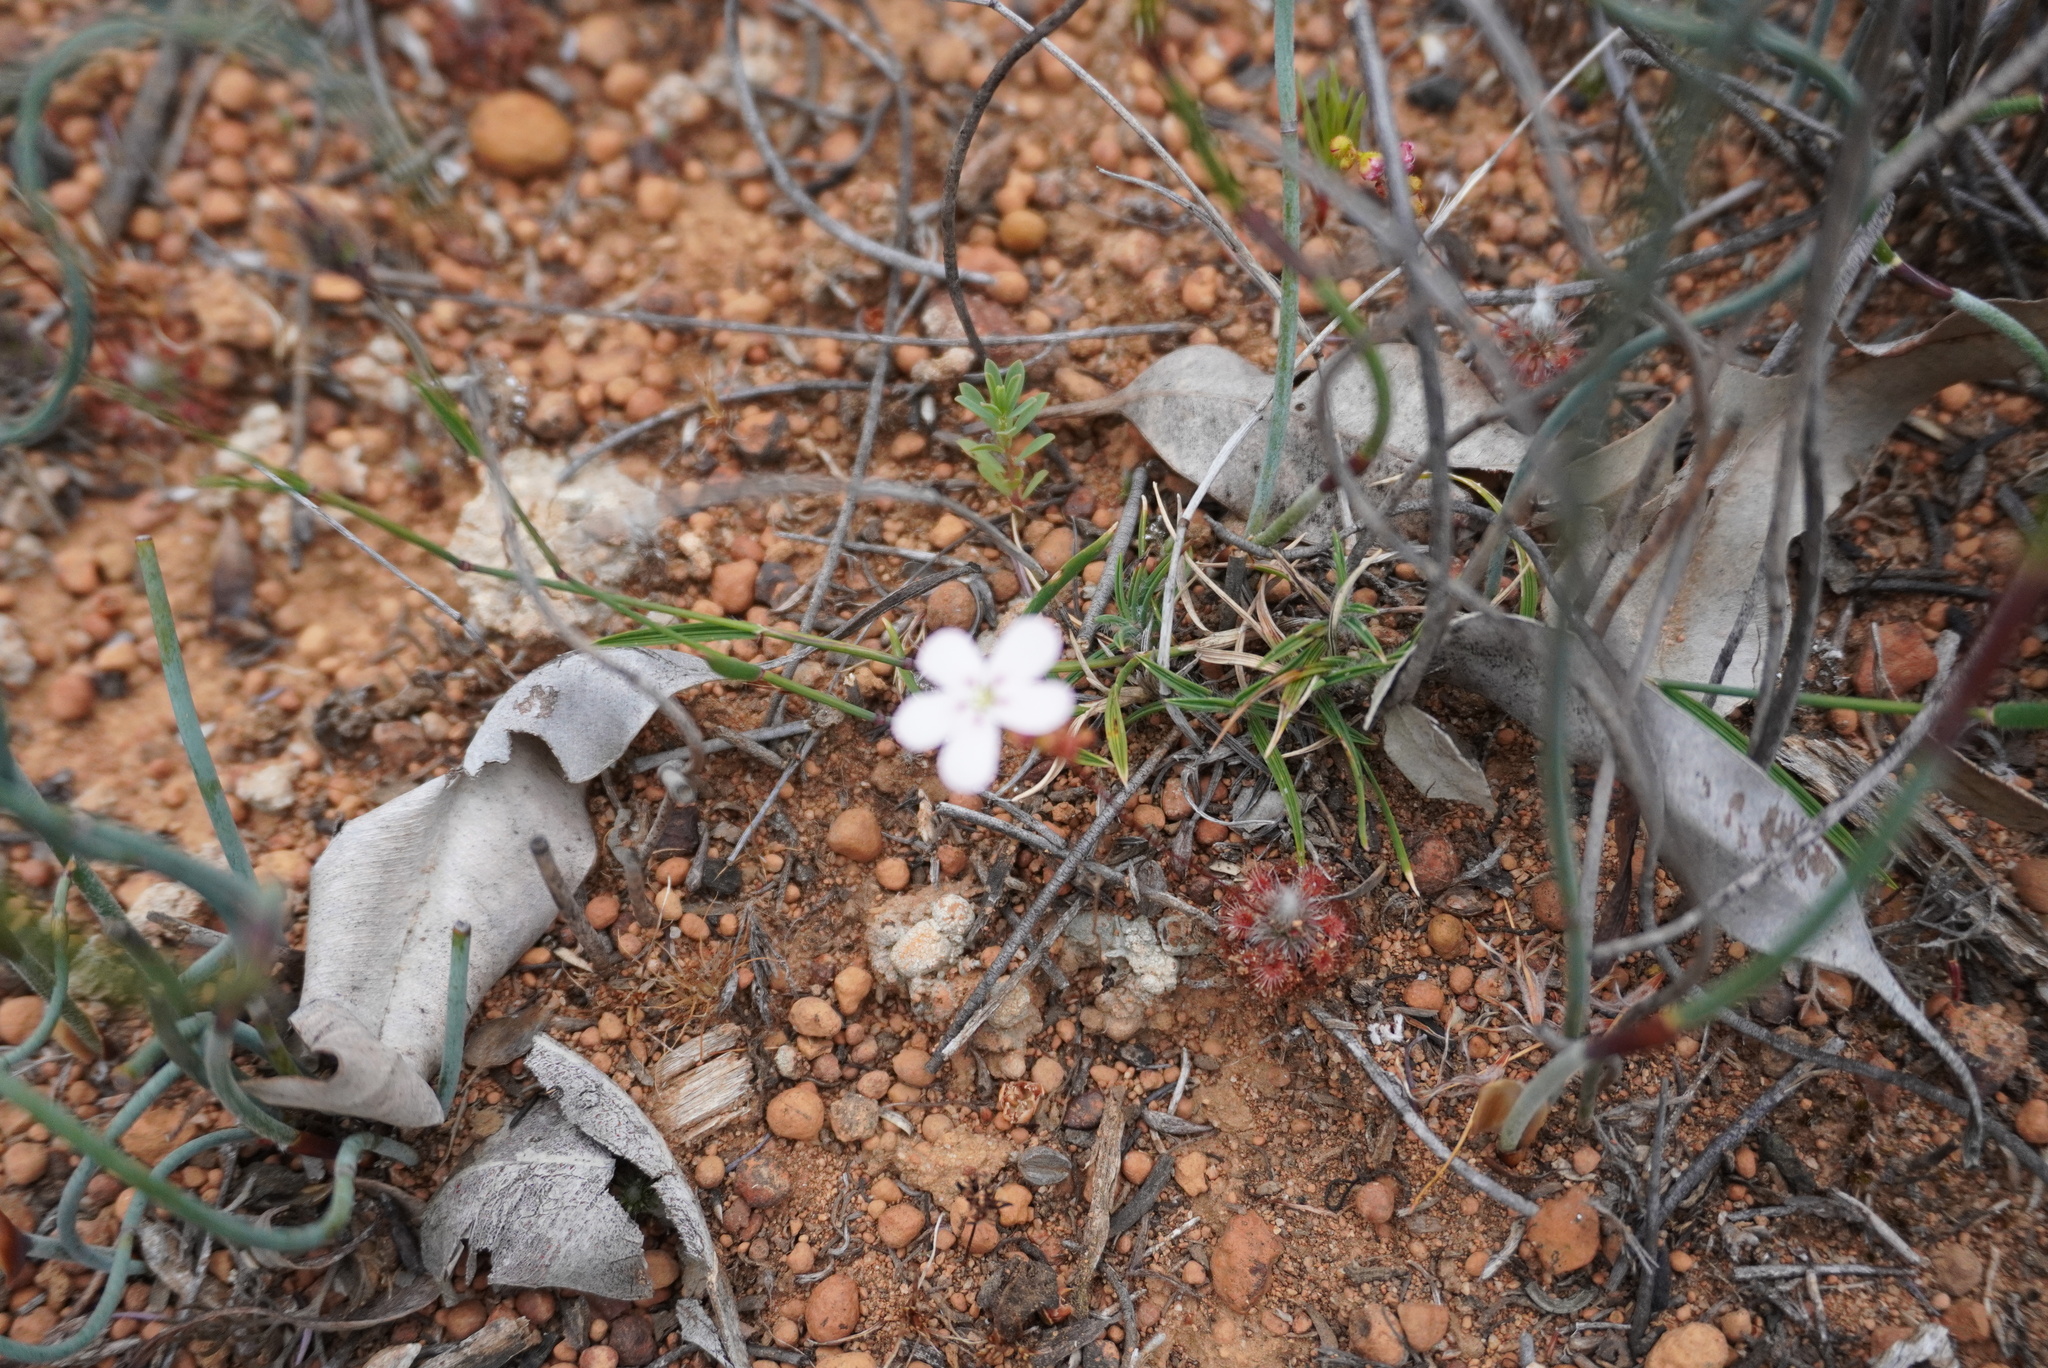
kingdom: Plantae
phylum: Tracheophyta
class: Magnoliopsida
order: Caryophyllales
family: Droseraceae
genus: Drosera
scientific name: Drosera spilos
